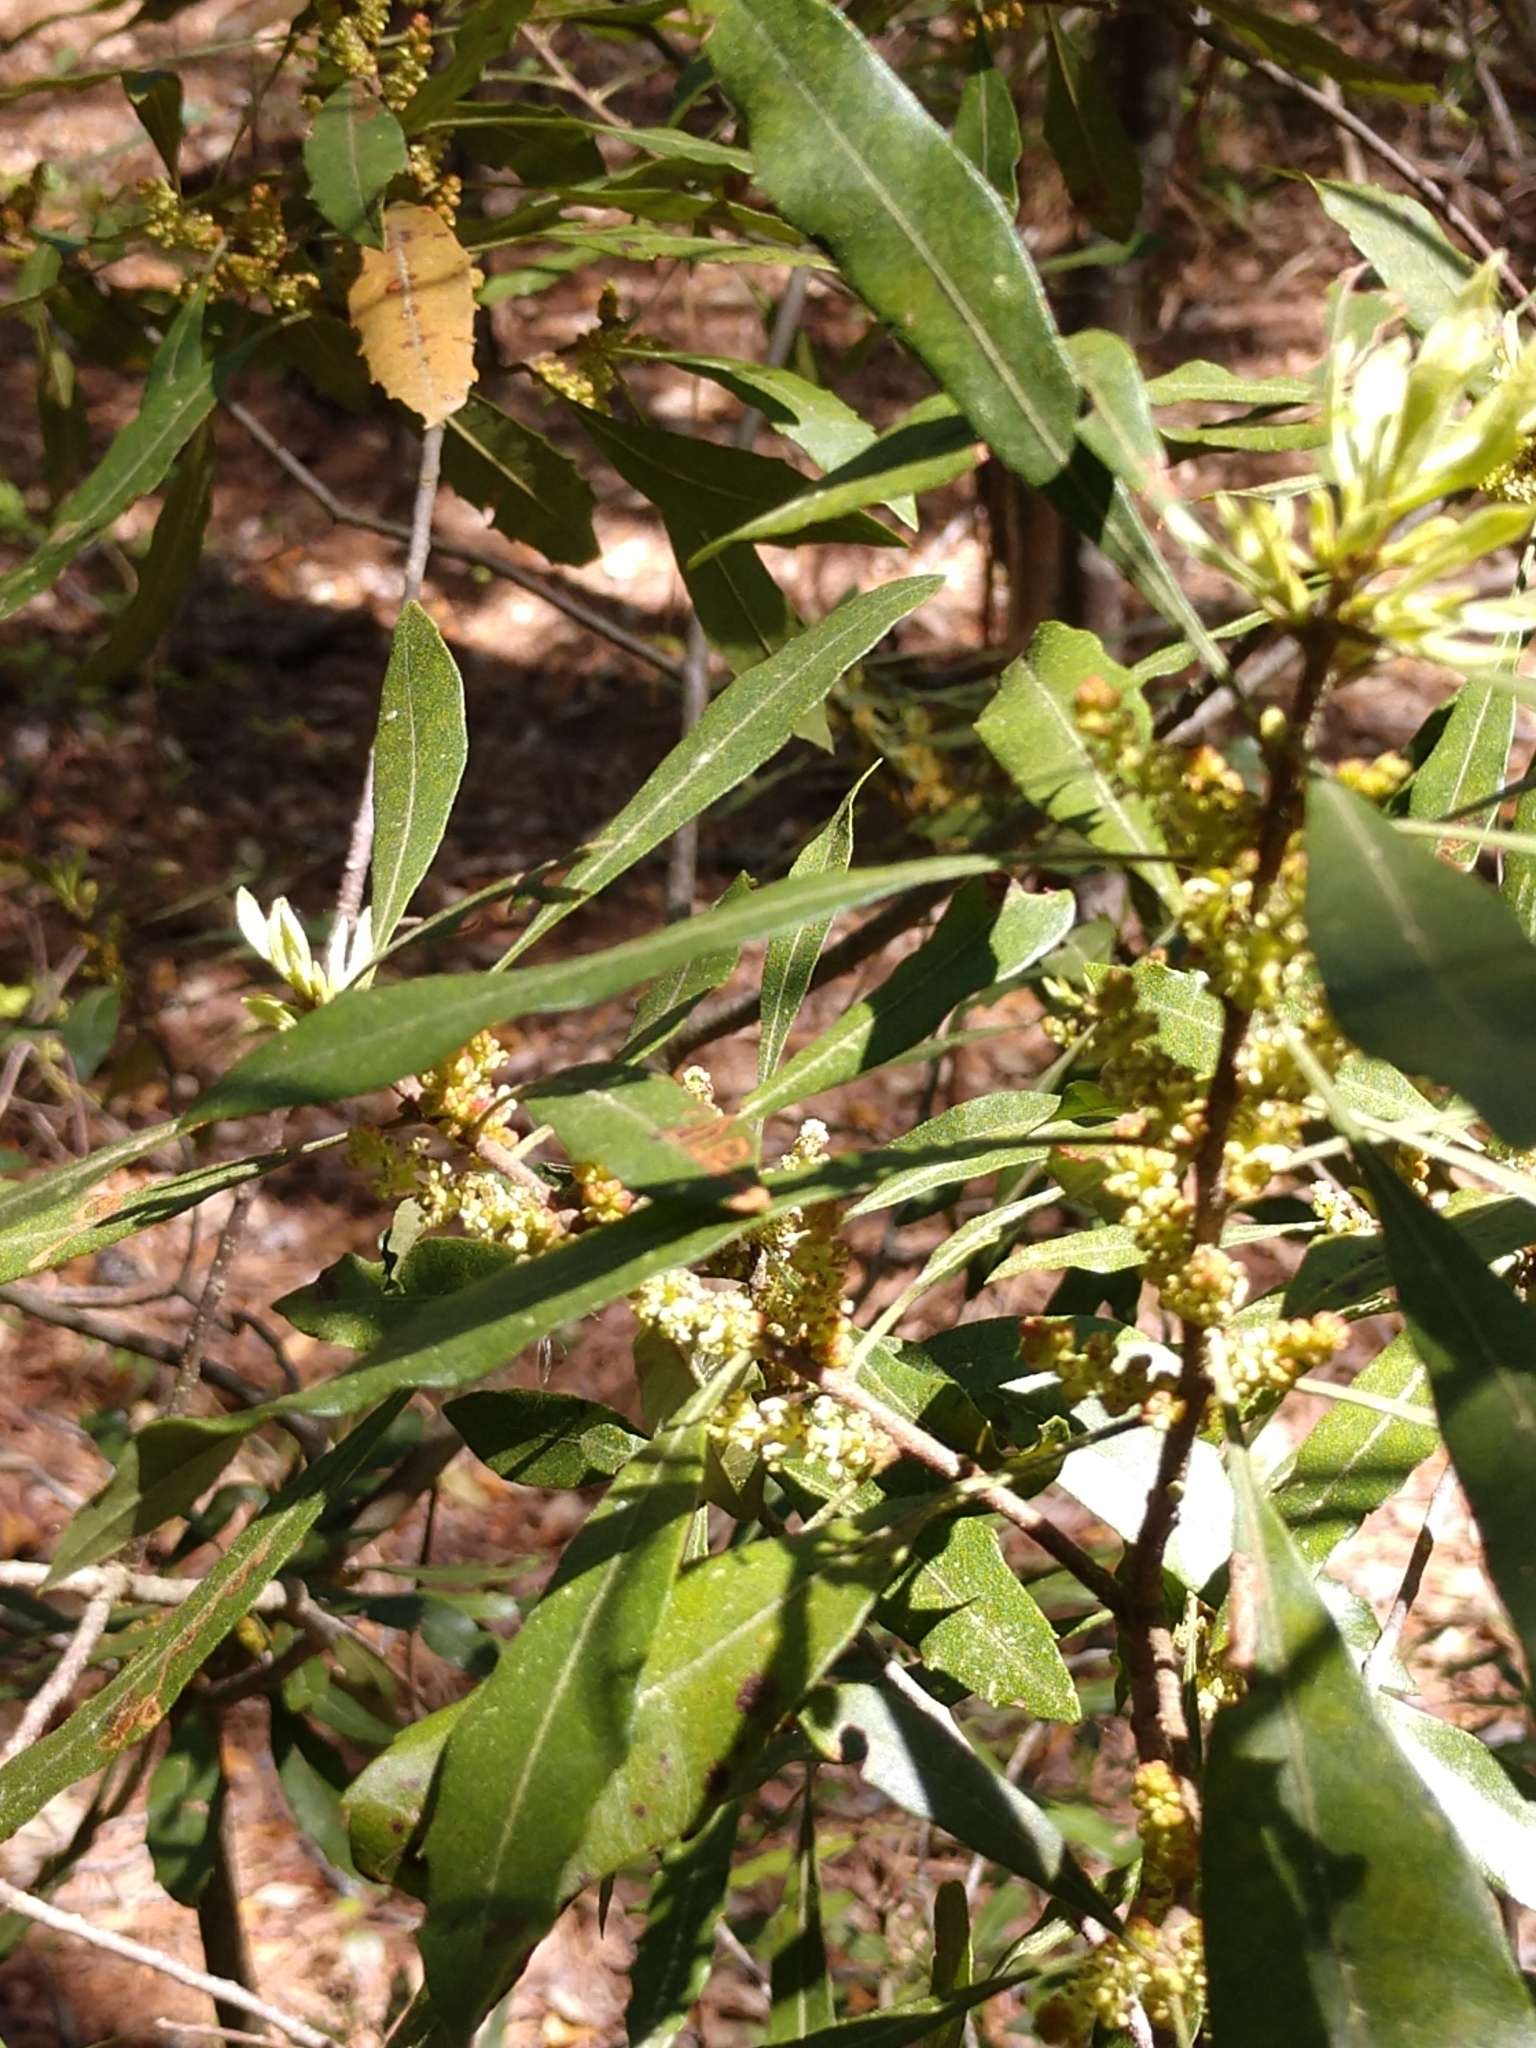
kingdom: Plantae
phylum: Tracheophyta
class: Magnoliopsida
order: Fagales
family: Myricaceae
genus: Morella
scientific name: Morella cerifera
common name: Wax myrtle
